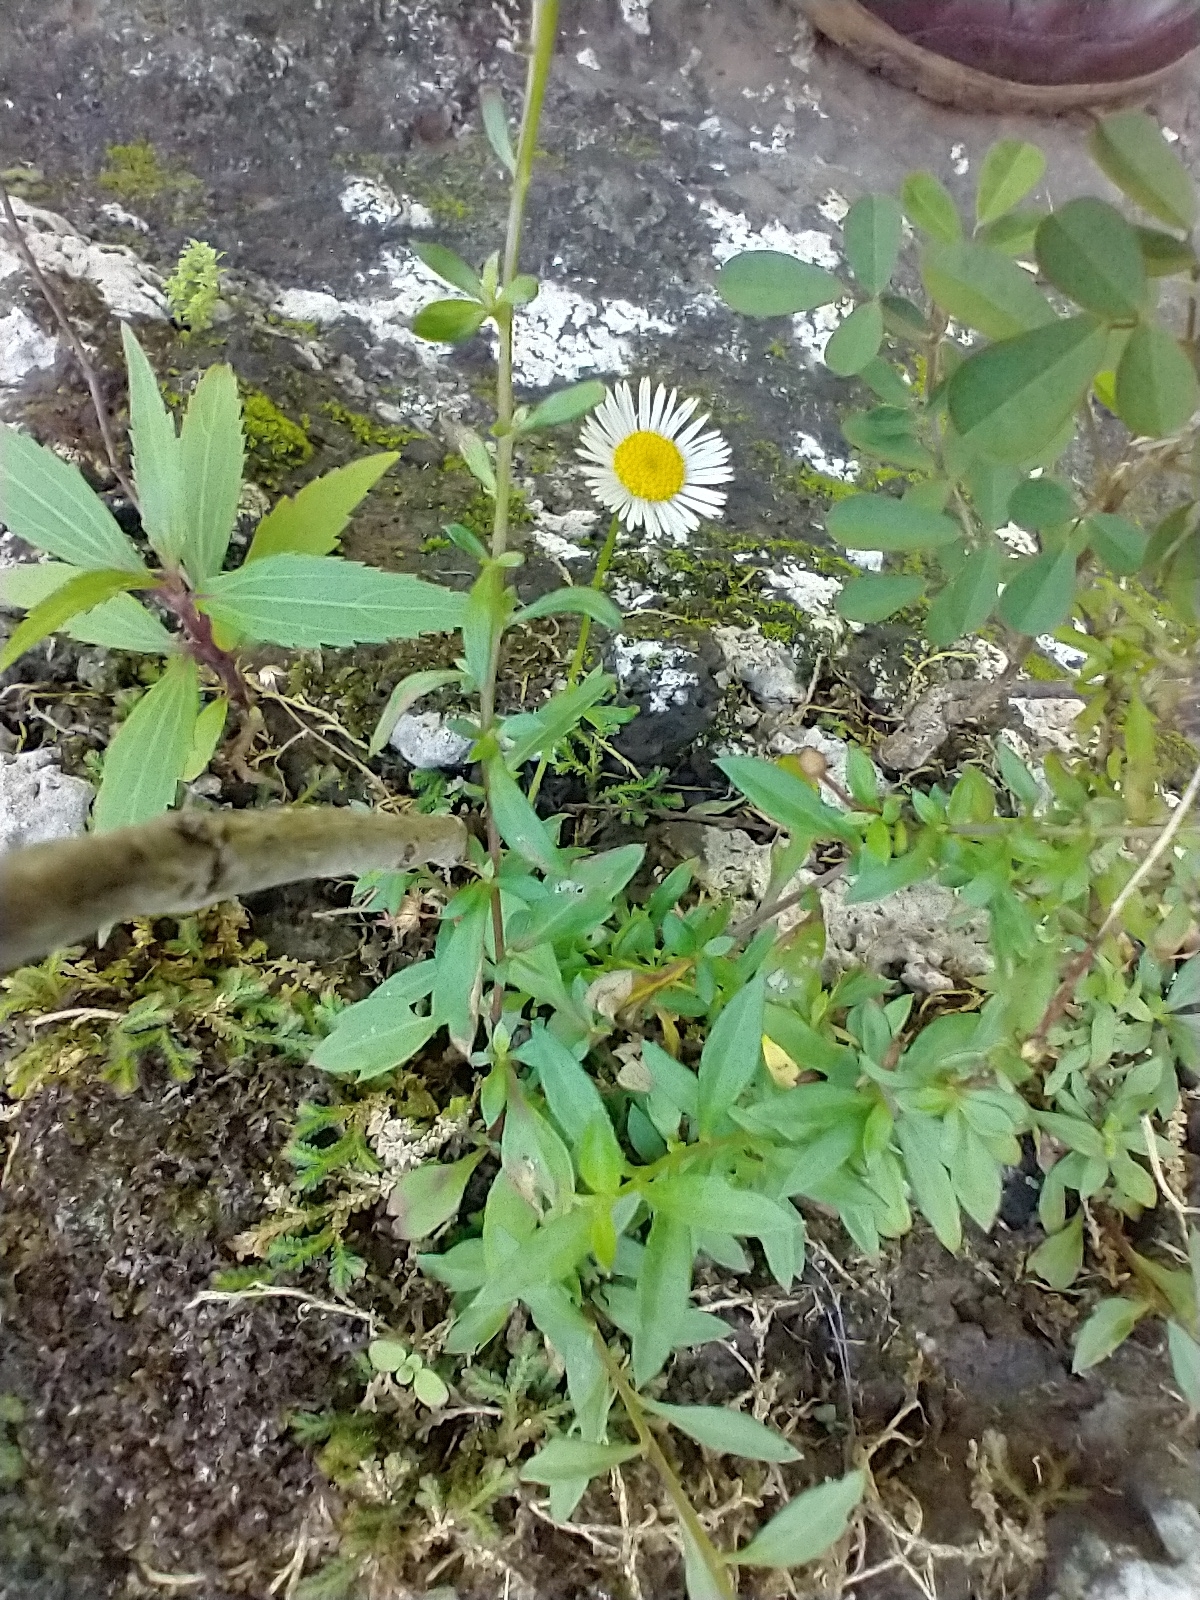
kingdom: Plantae
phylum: Tracheophyta
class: Magnoliopsida
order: Asterales
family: Asteraceae
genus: Erigeron
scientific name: Erigeron karvinskianus
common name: Mexican fleabane
